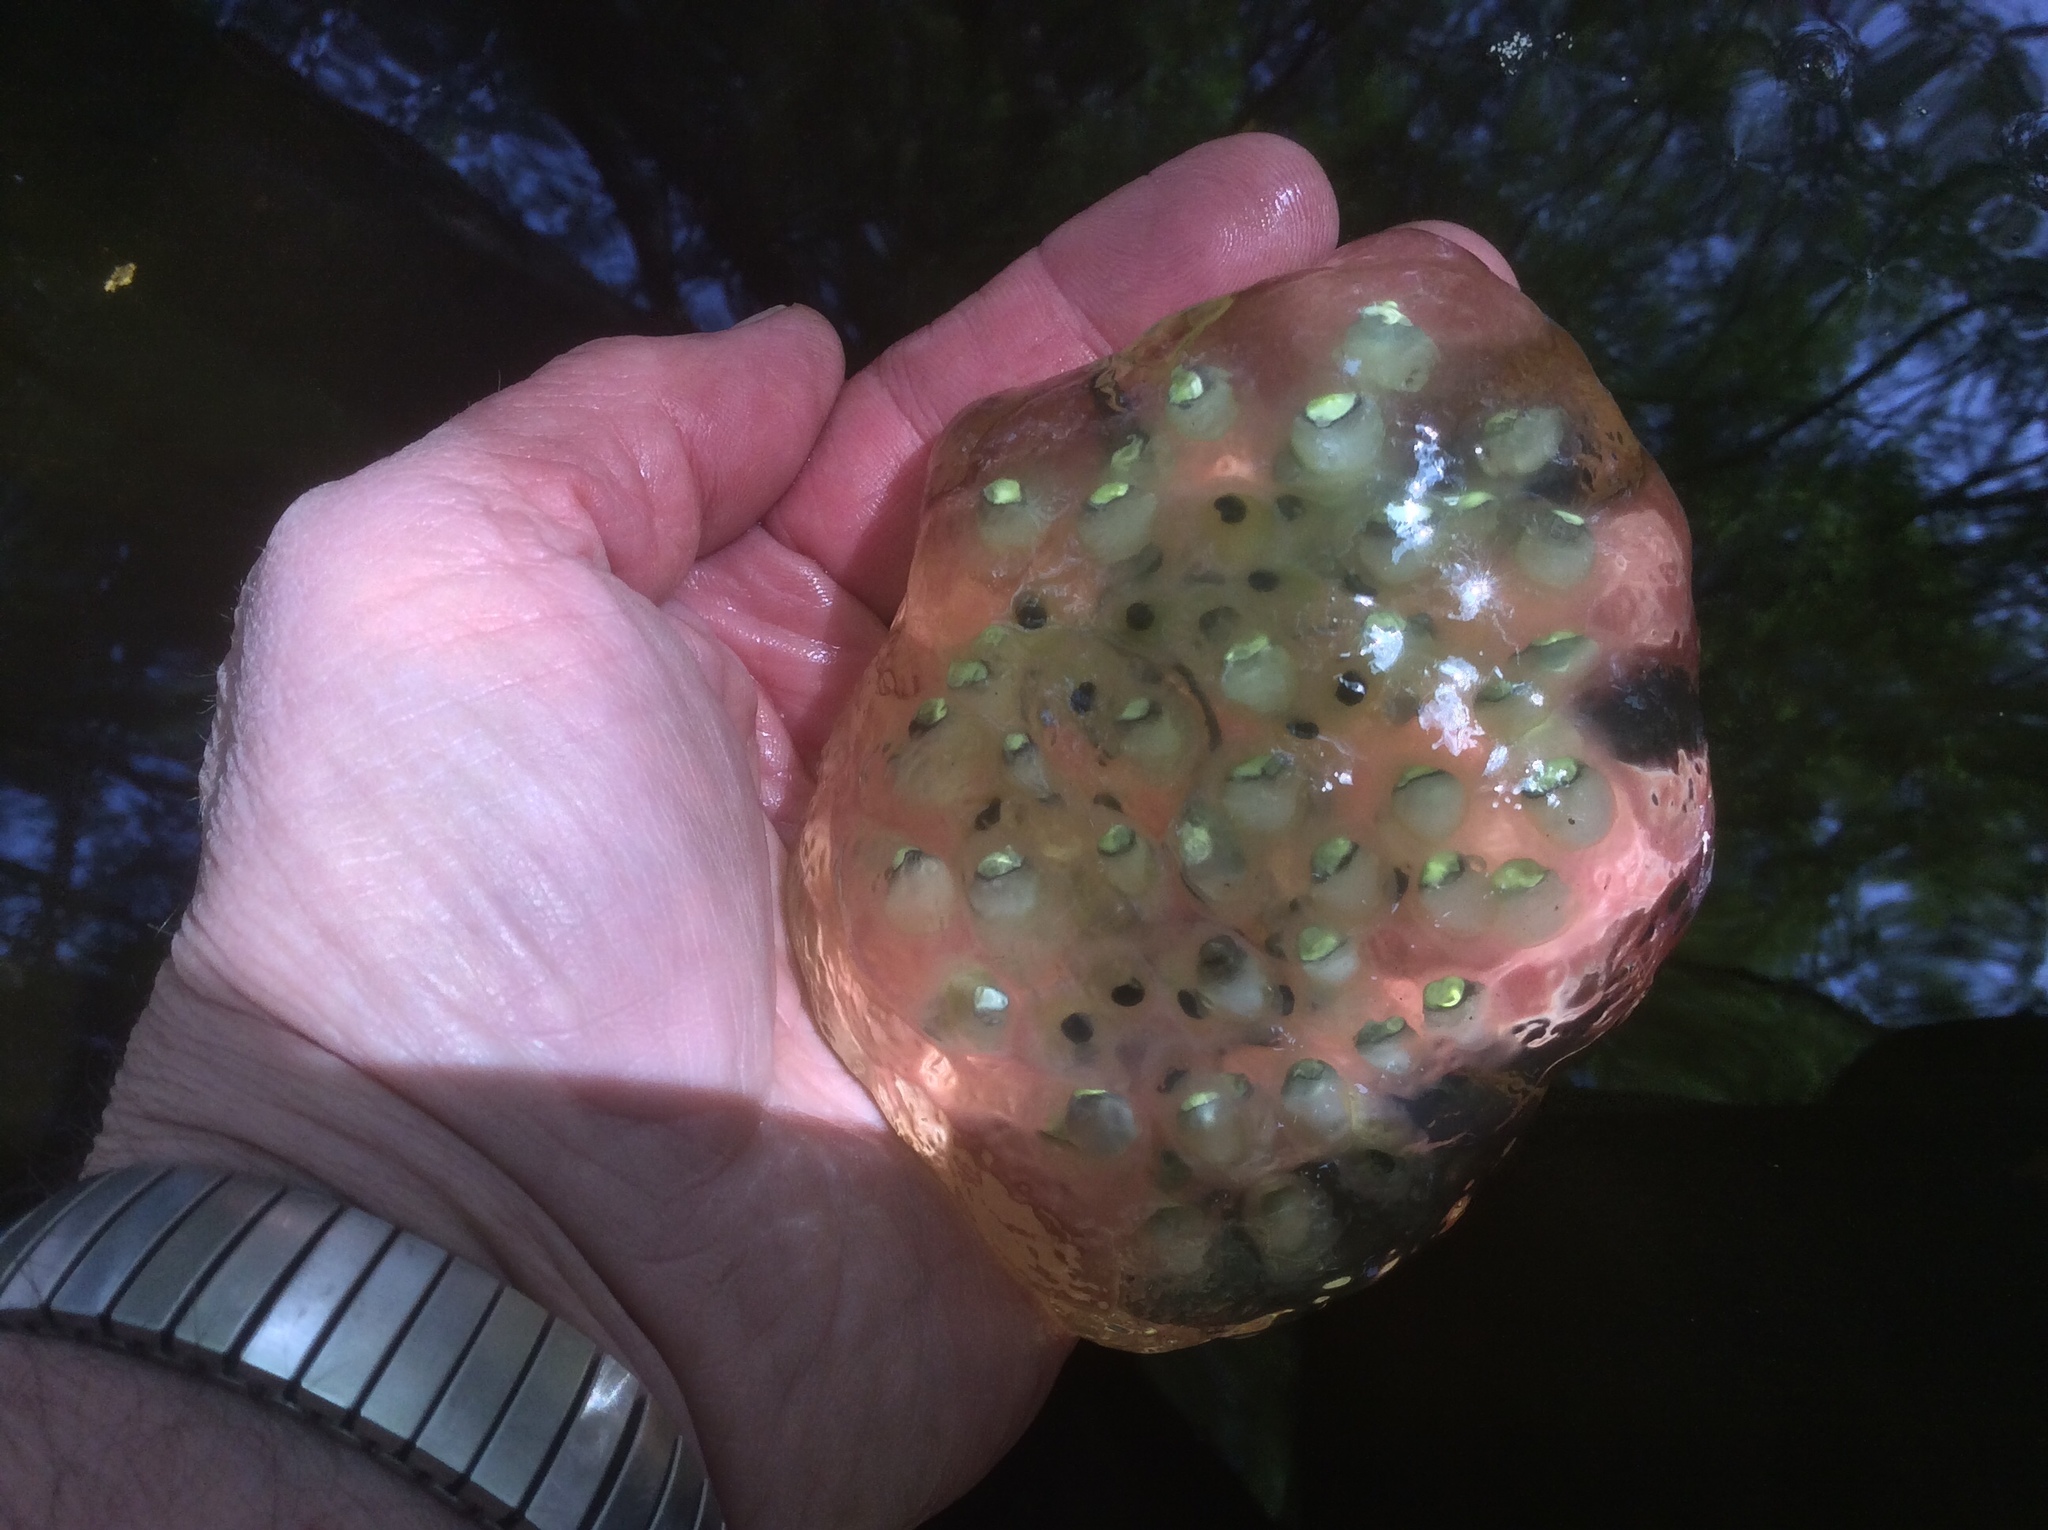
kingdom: Animalia
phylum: Chordata
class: Amphibia
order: Caudata
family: Ambystomatidae
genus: Ambystoma
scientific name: Ambystoma maculatum
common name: Spotted salamander
